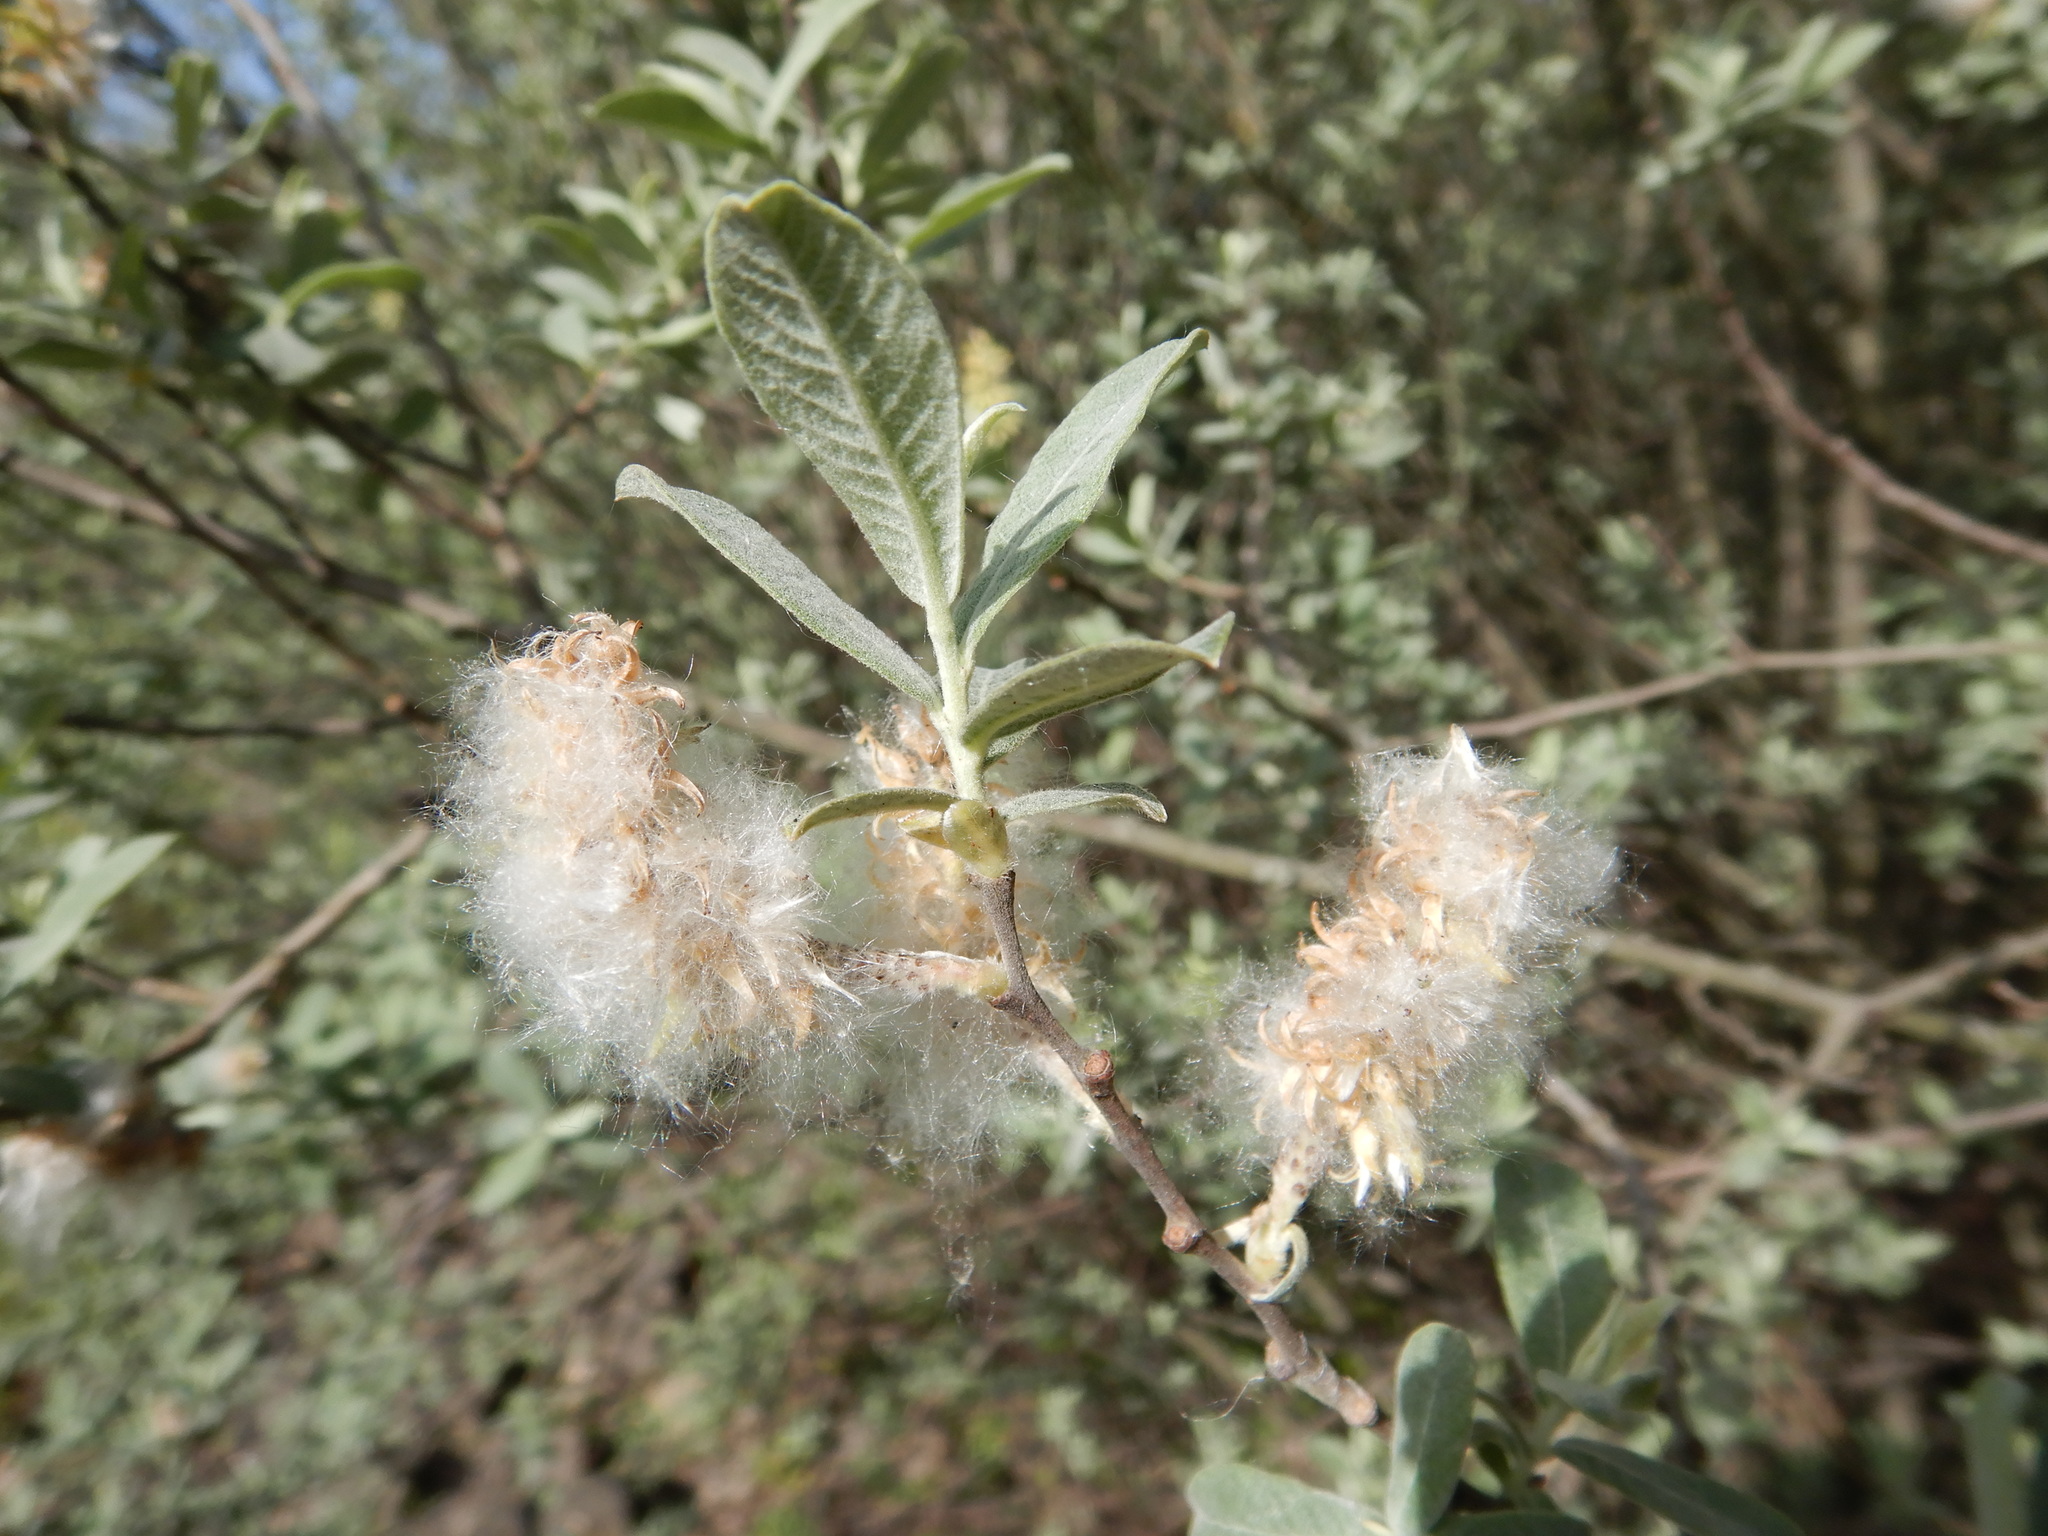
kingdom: Plantae
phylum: Tracheophyta
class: Magnoliopsida
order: Malpighiales
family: Salicaceae
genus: Salix
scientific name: Salix salviifolia
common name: Salvia-leaf willow
